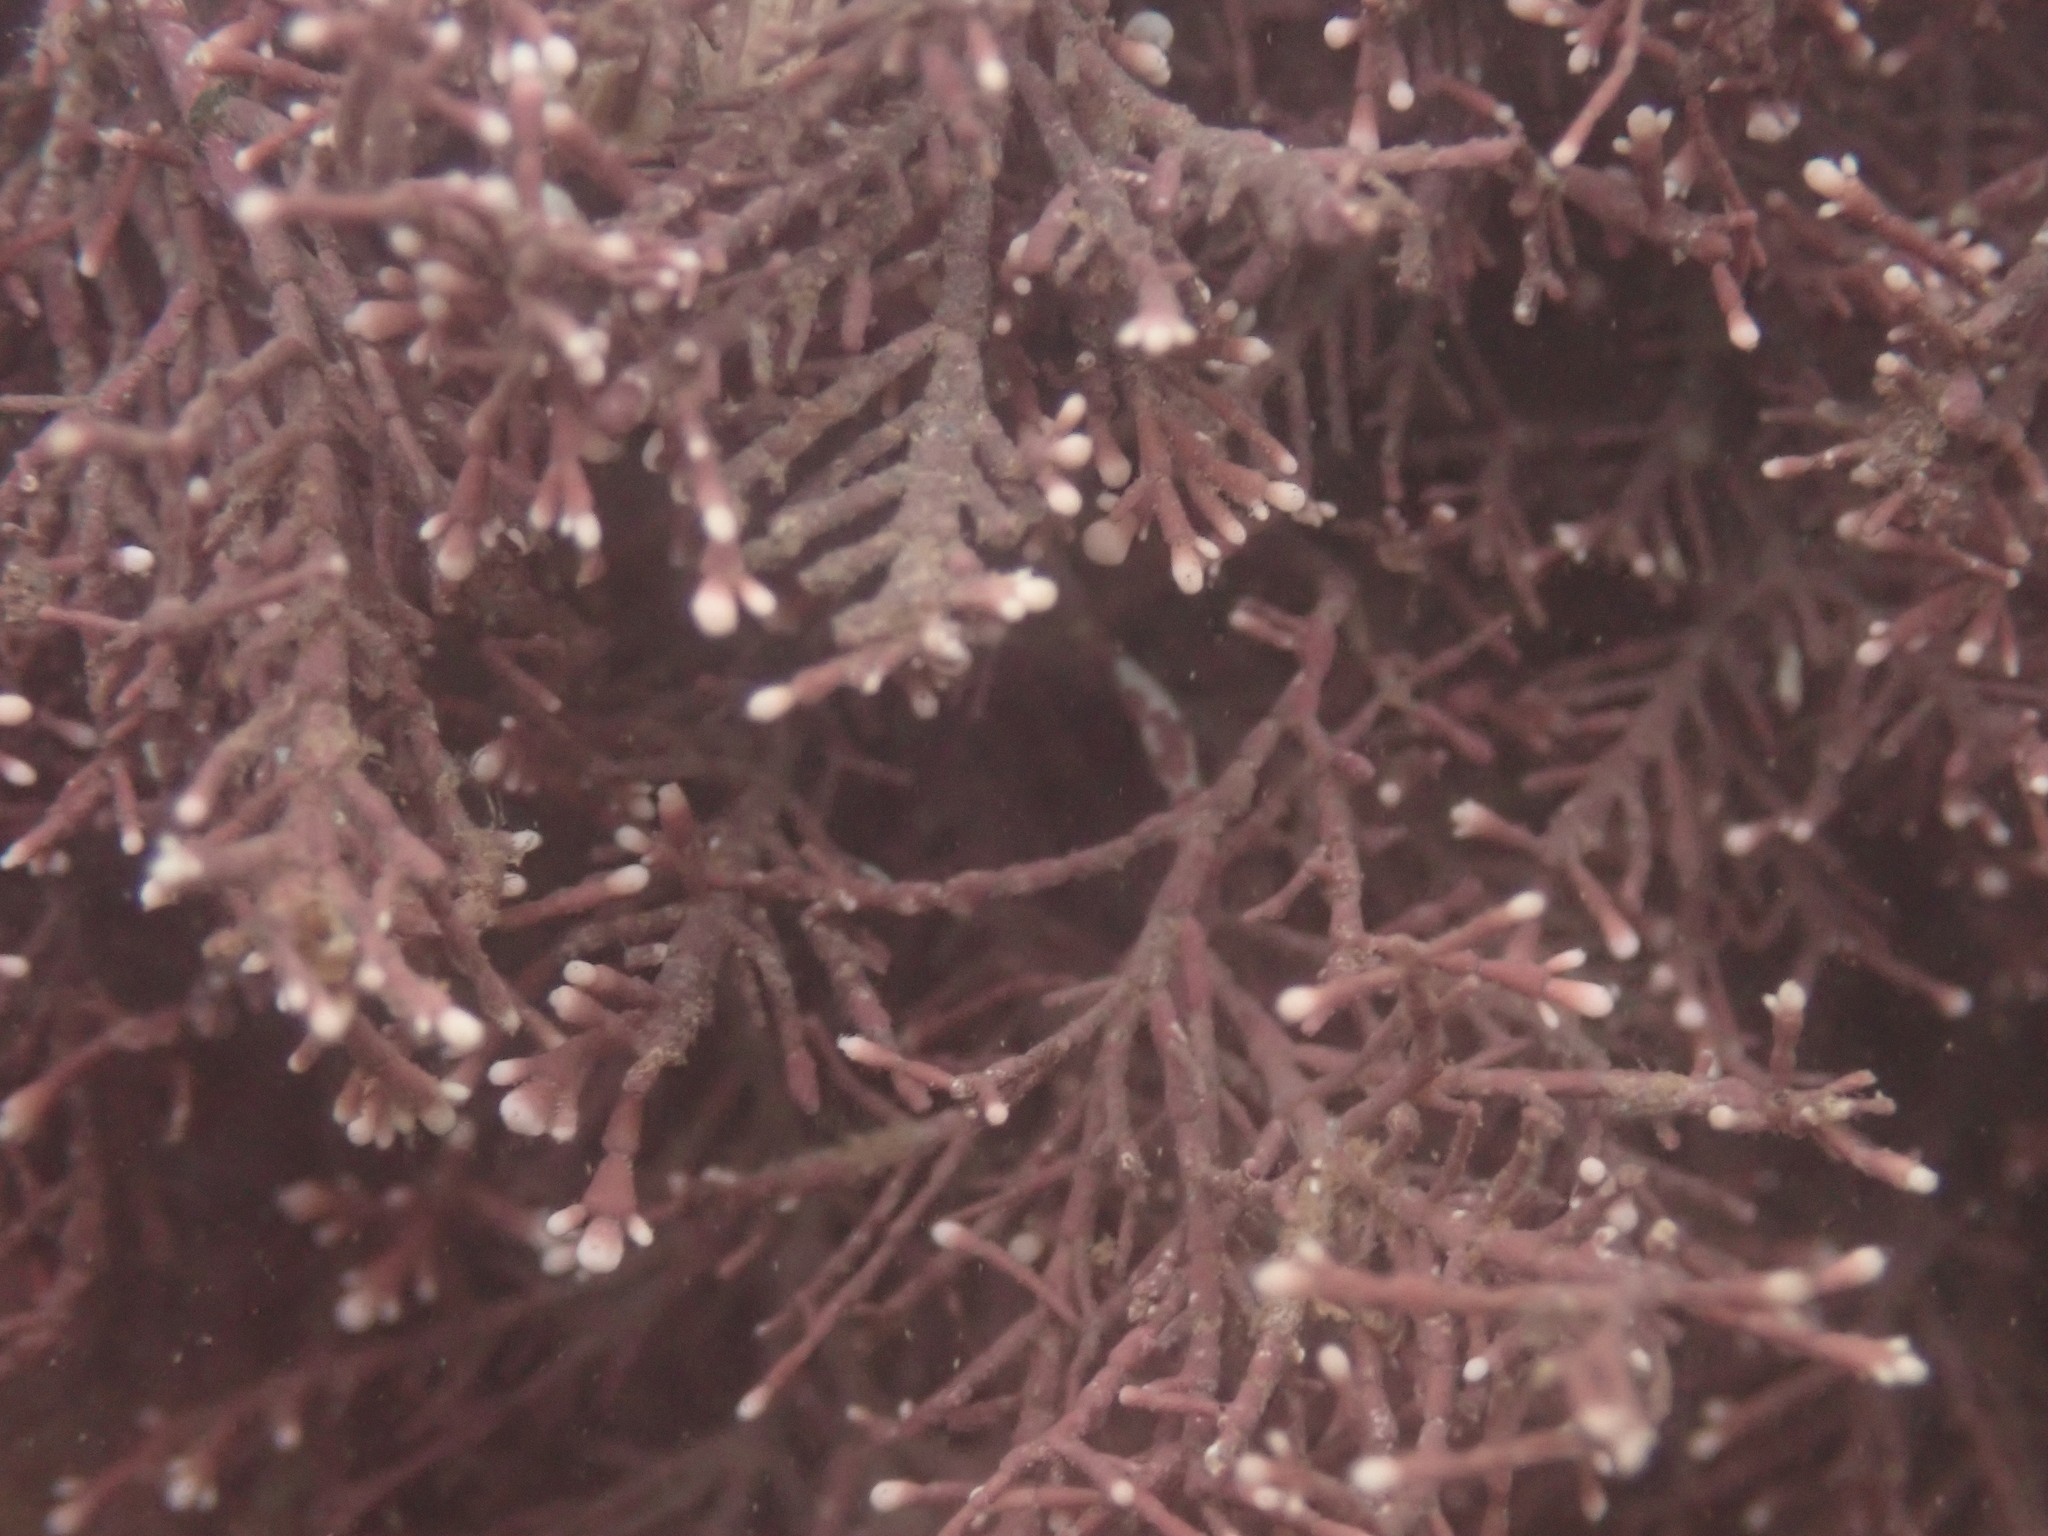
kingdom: Plantae
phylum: Rhodophyta
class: Florideophyceae
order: Corallinales
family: Corallinaceae
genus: Corallina
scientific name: Corallina officinalis
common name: Coral weed
